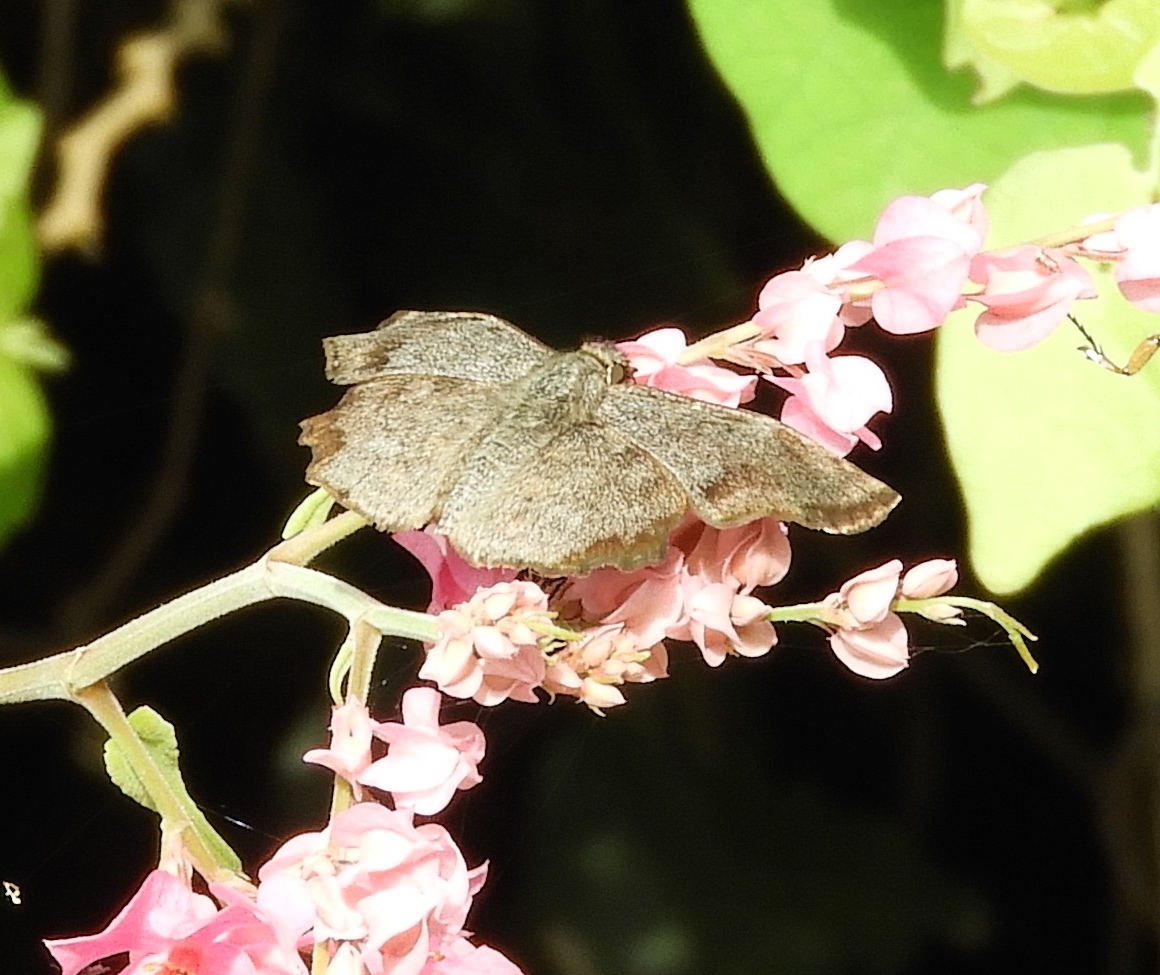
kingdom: Animalia
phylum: Arthropoda
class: Insecta
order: Lepidoptera
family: Hesperiidae
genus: Antigonus
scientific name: Antigonus erosus
